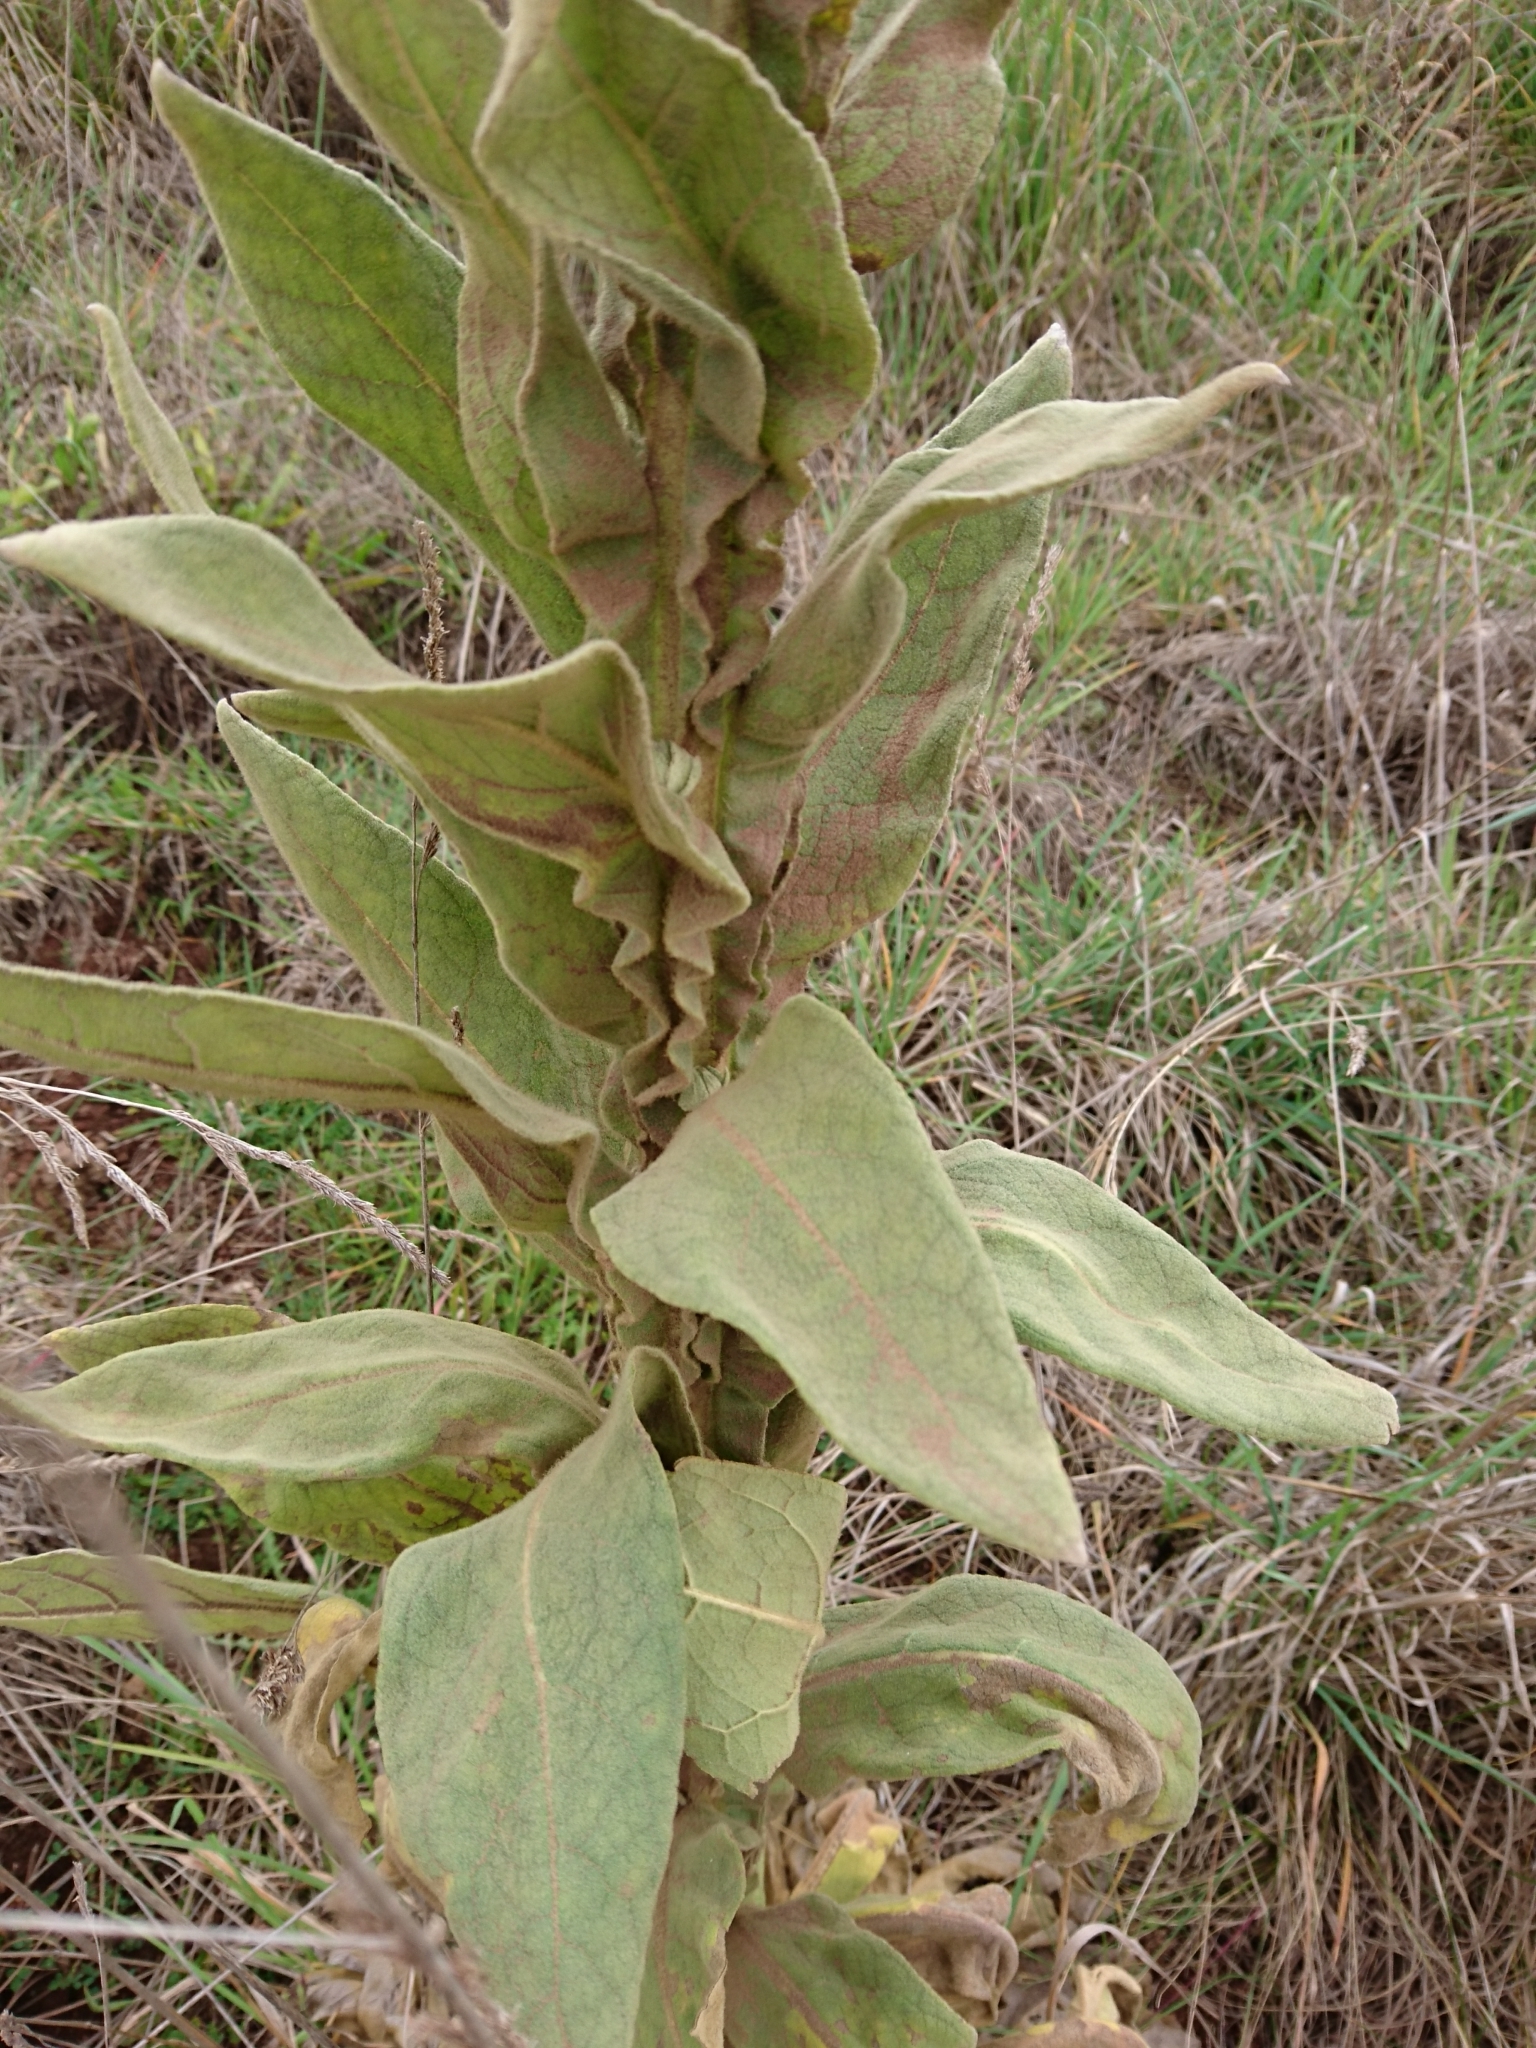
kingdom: Plantae
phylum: Tracheophyta
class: Magnoliopsida
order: Lamiales
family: Scrophulariaceae
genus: Verbascum
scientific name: Verbascum thapsus
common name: Common mullein
